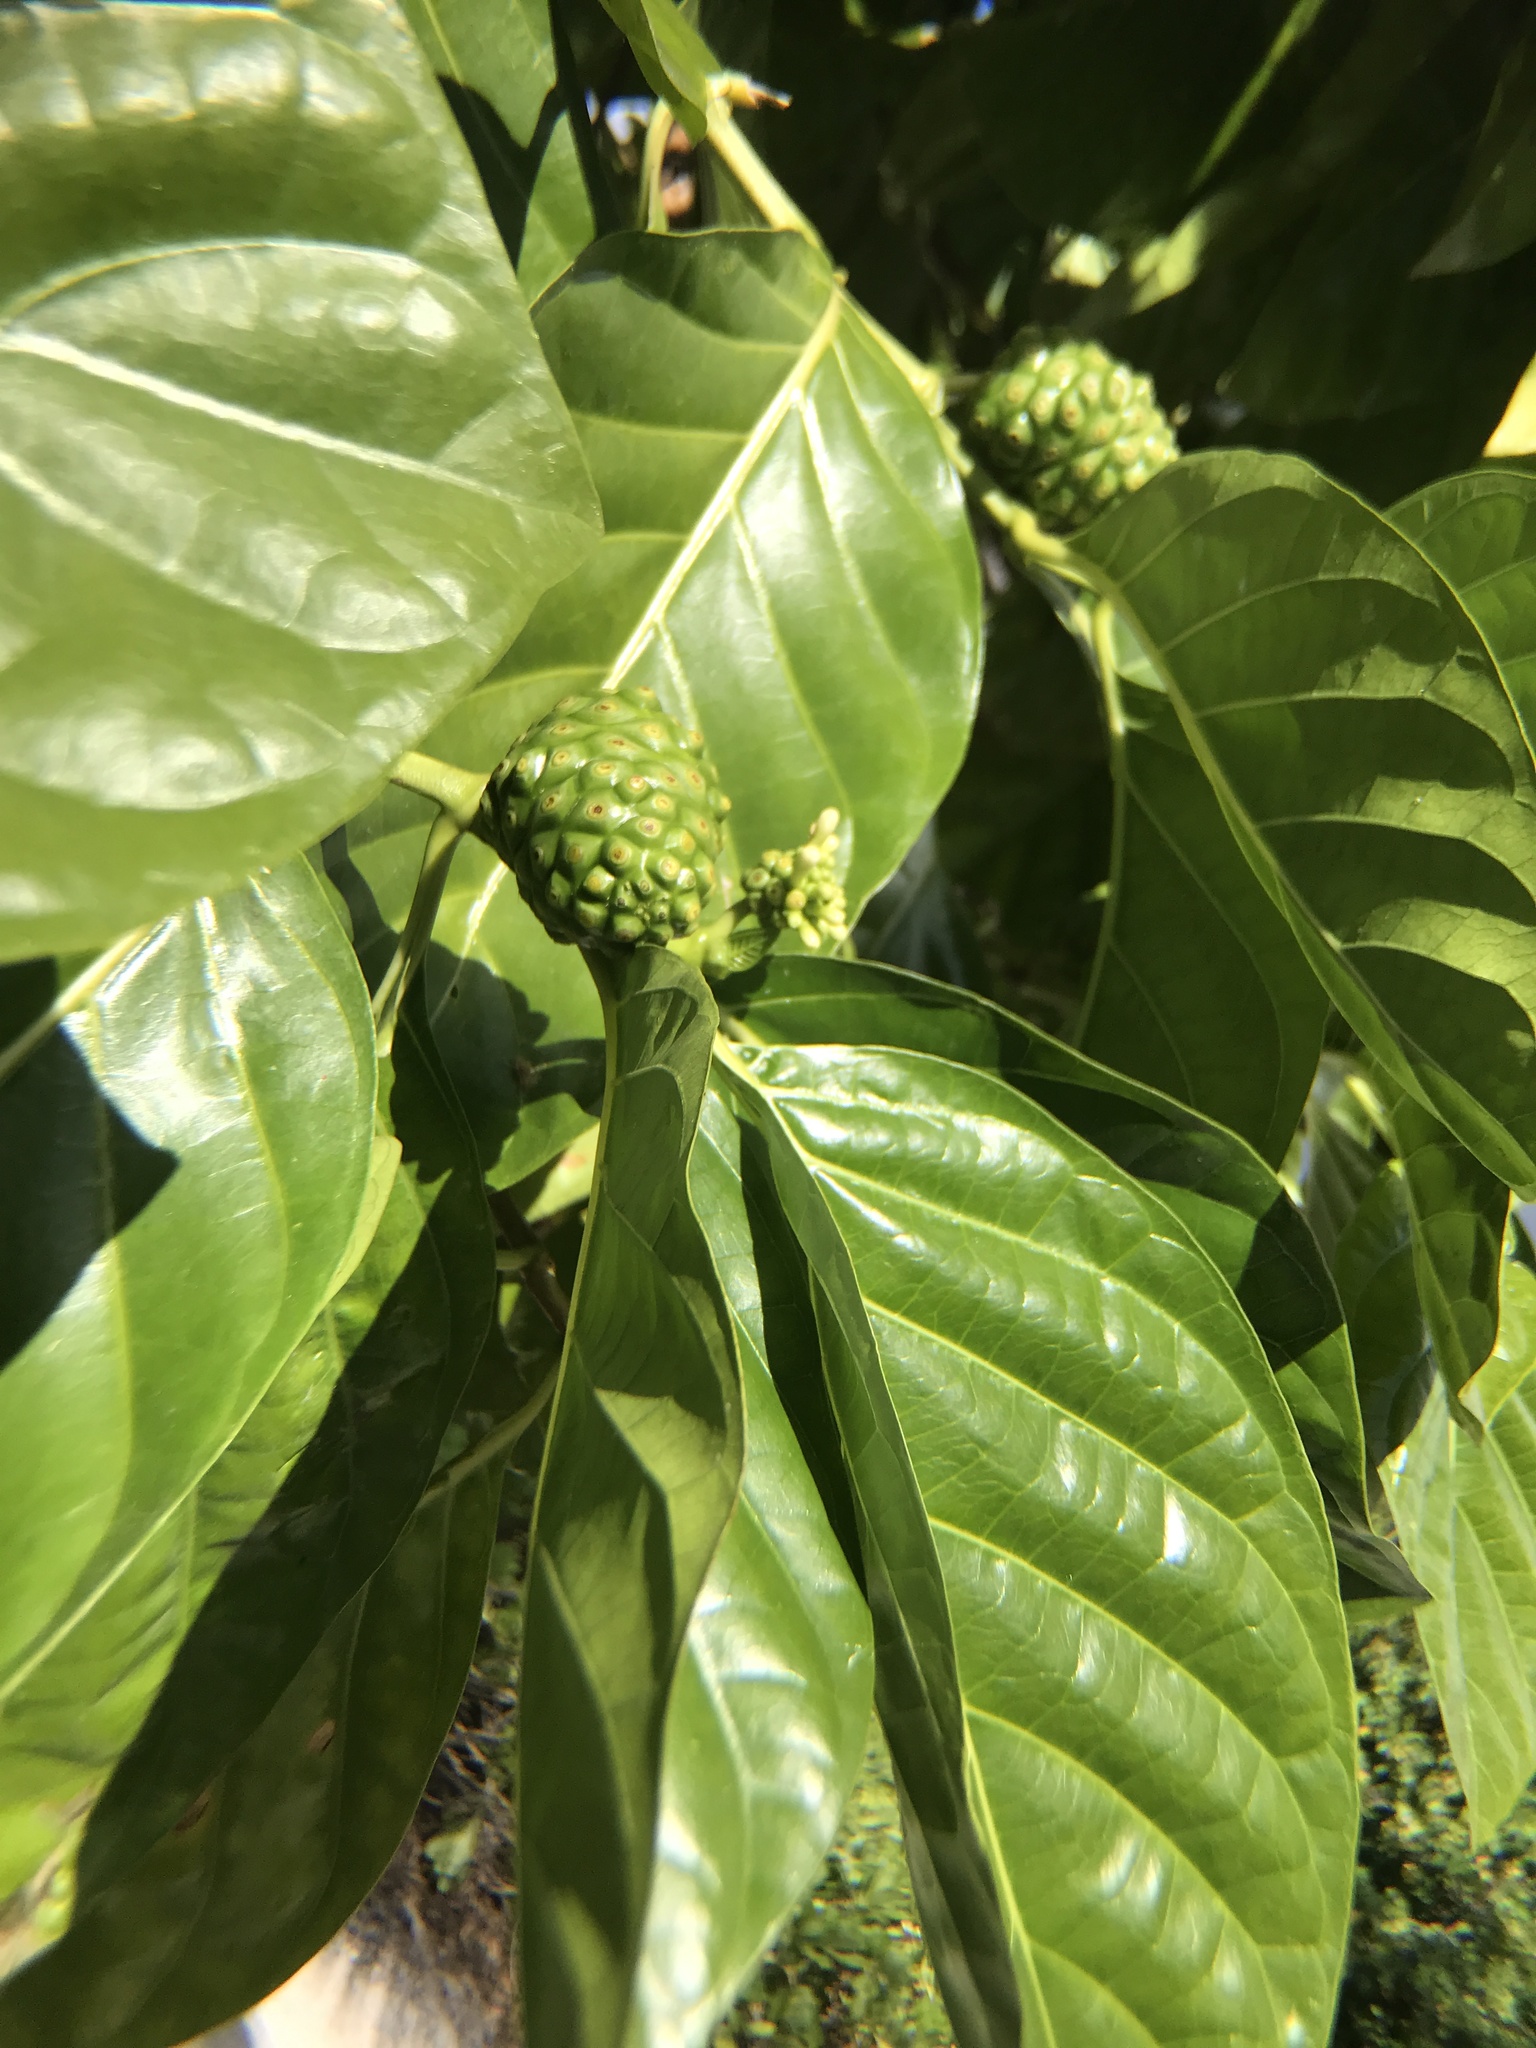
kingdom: Plantae
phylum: Tracheophyta
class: Magnoliopsida
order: Gentianales
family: Rubiaceae
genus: Morinda
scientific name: Morinda citrifolia
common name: Indian-mulberry
